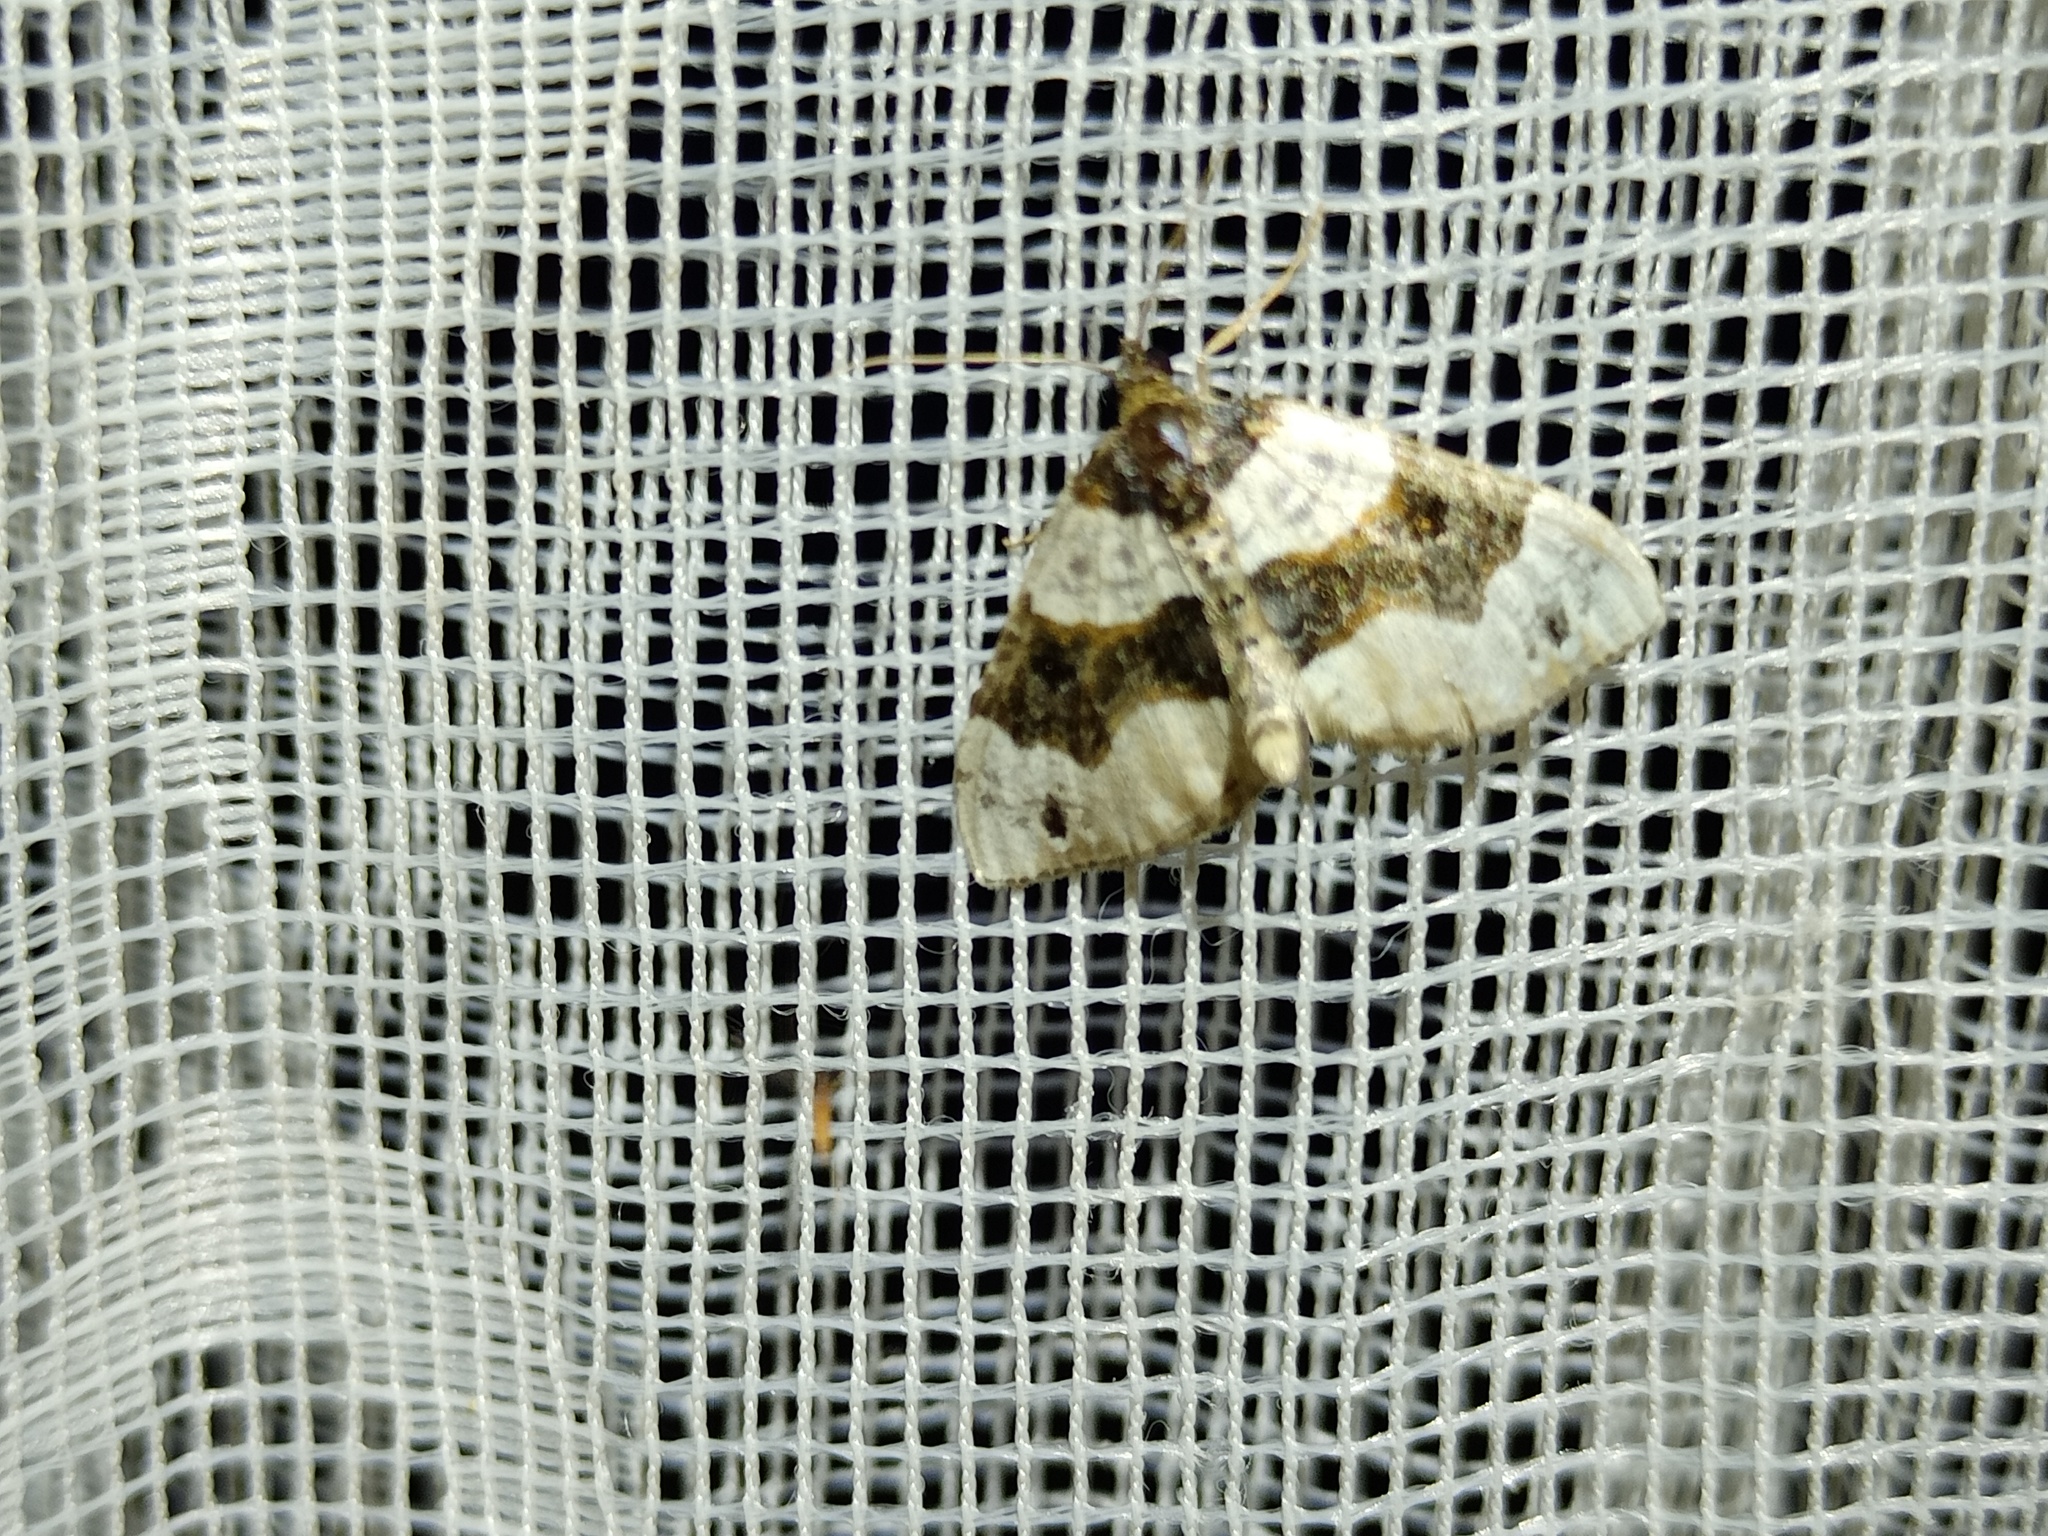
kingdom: Animalia
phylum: Arthropoda
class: Insecta
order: Lepidoptera
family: Geometridae
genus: Cosmorhoe
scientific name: Cosmorhoe ocellata
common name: Purple bar
